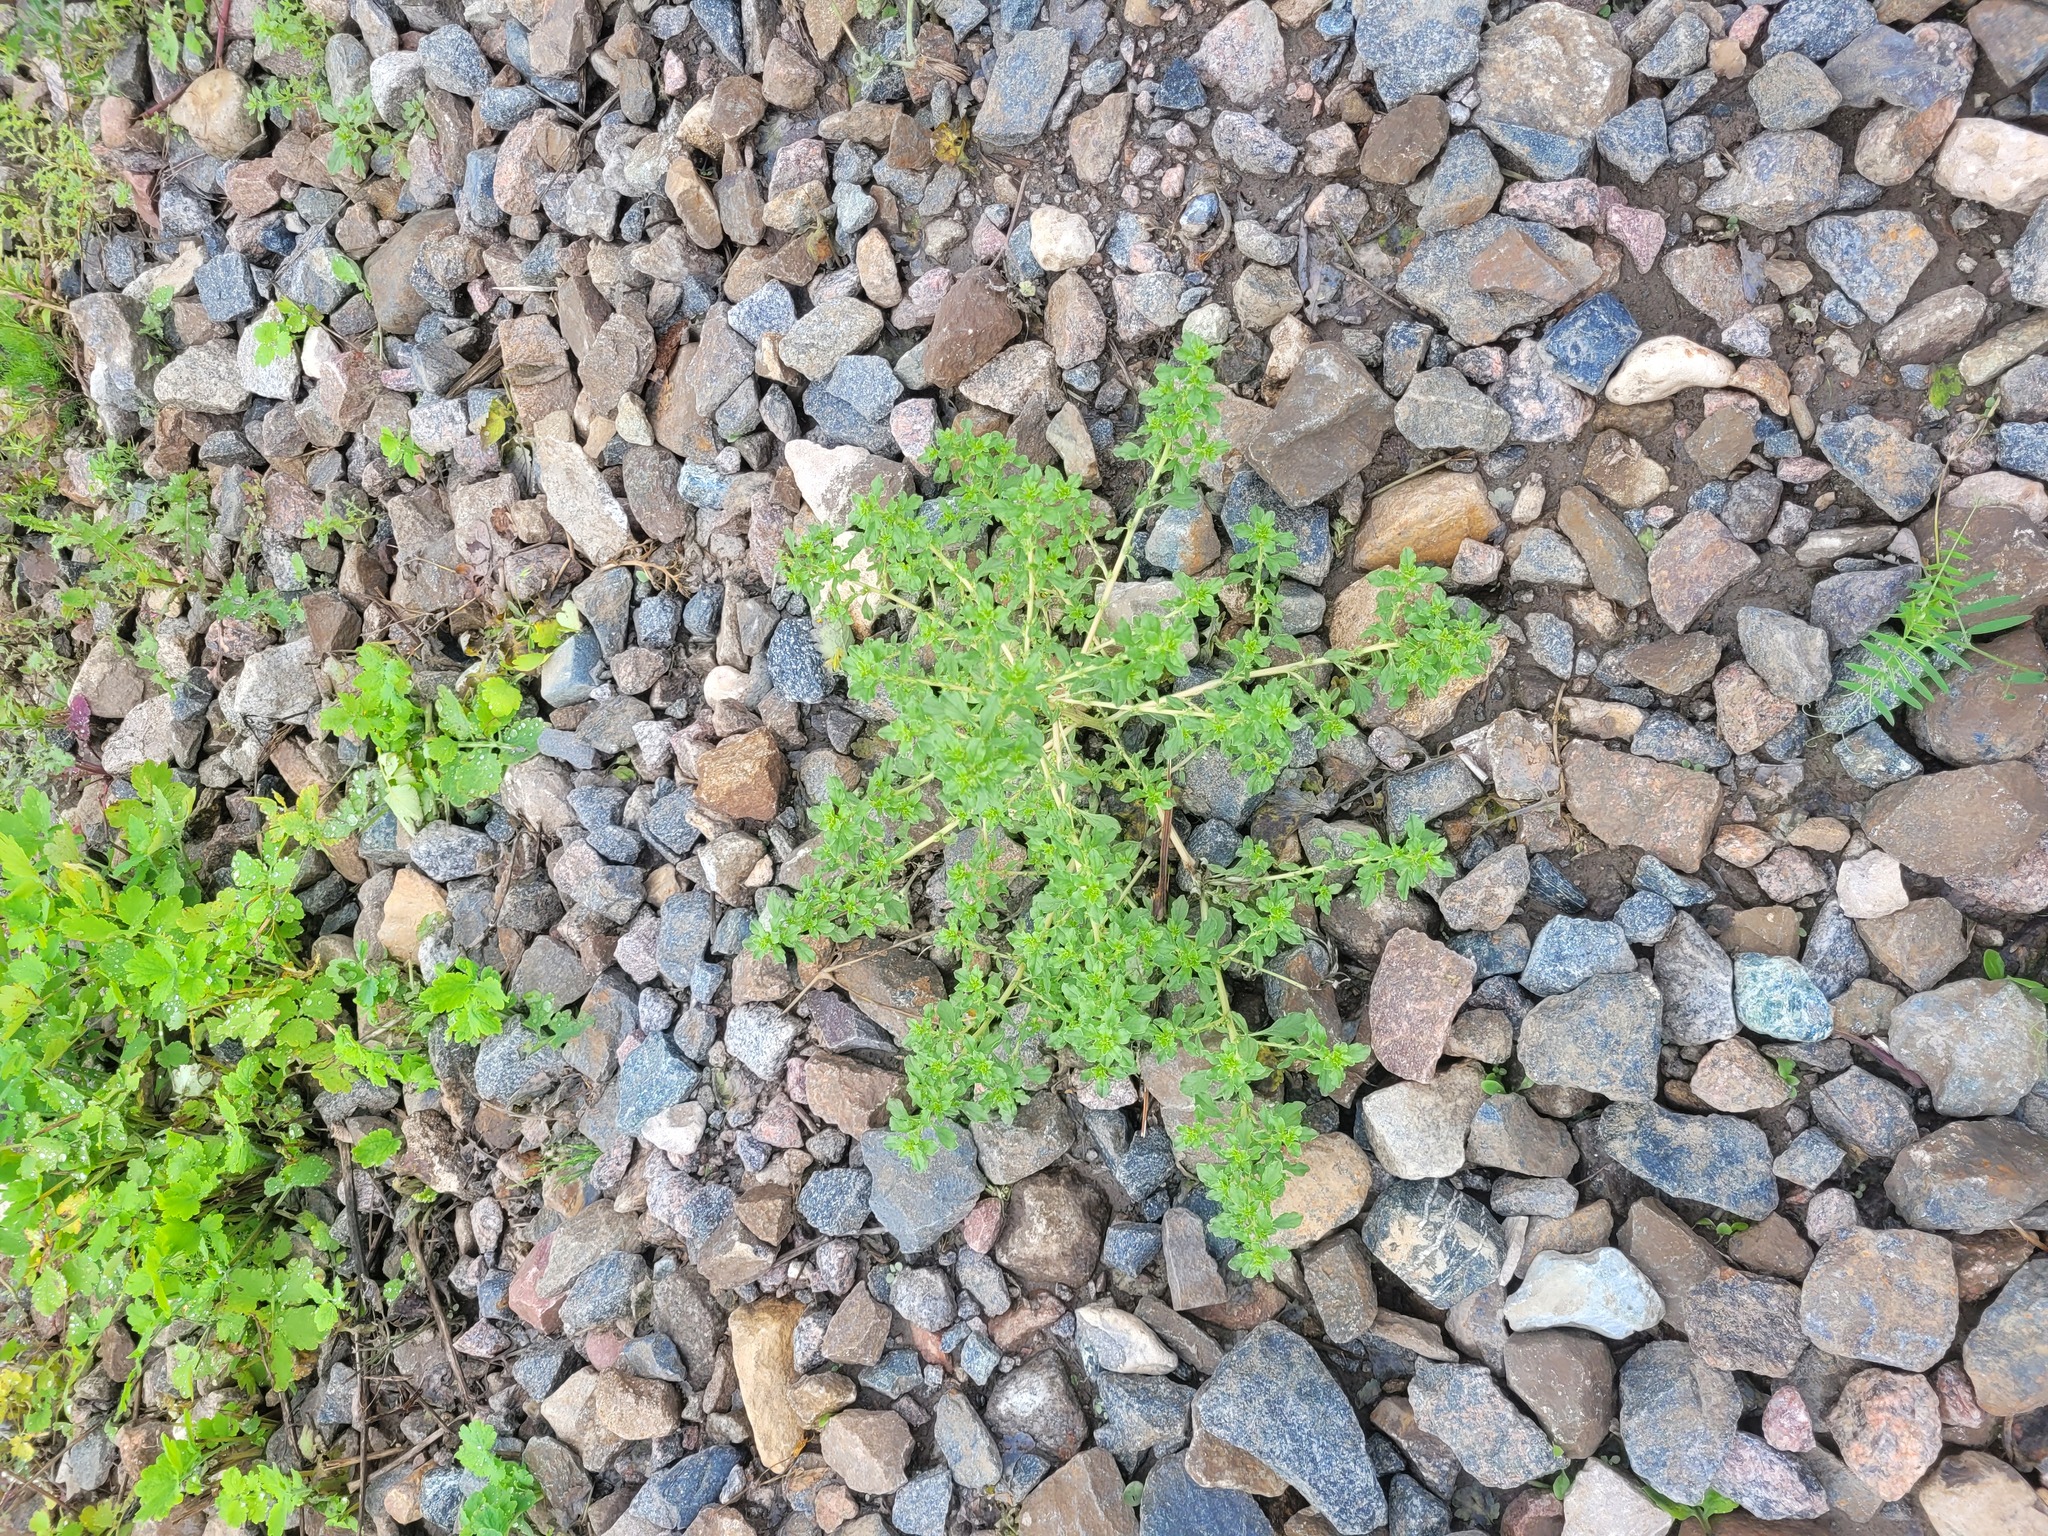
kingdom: Plantae
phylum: Tracheophyta
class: Magnoliopsida
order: Caryophyllales
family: Amaranthaceae
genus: Amaranthus
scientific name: Amaranthus albus
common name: White pigweed
